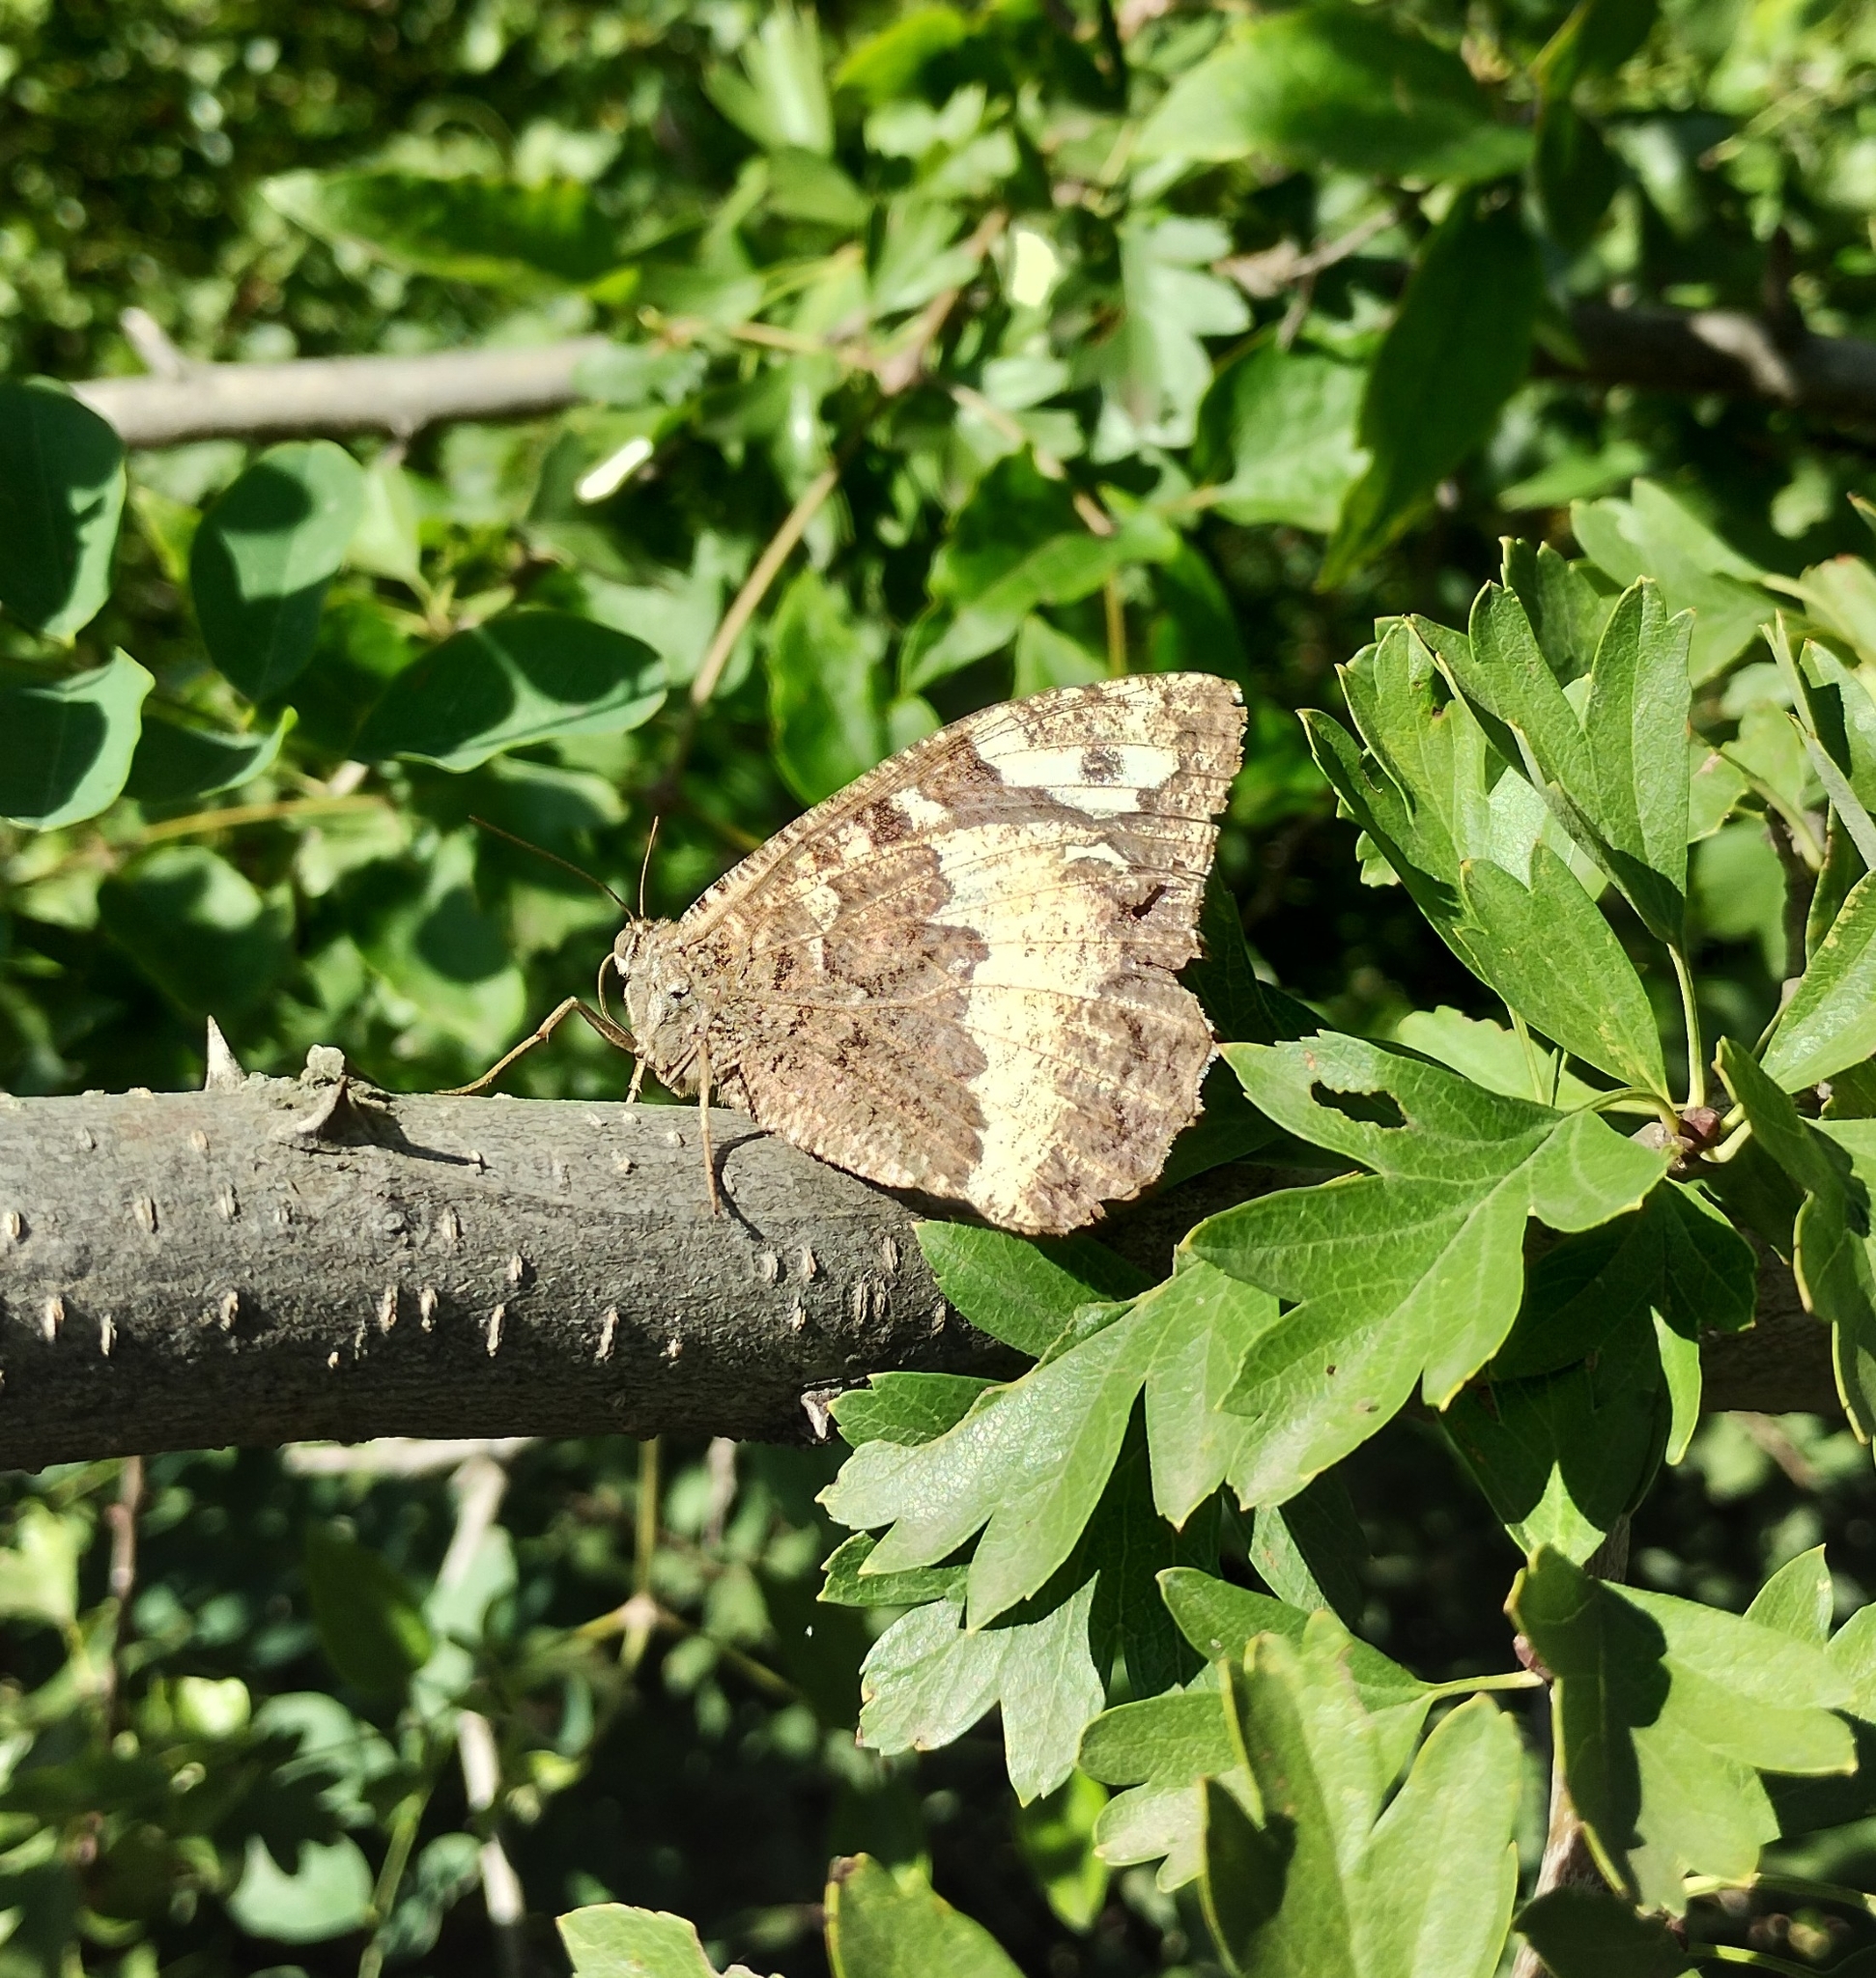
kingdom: Animalia
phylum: Arthropoda
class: Insecta
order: Lepidoptera
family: Lycaenidae
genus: Loweia
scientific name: Loweia tityrus
